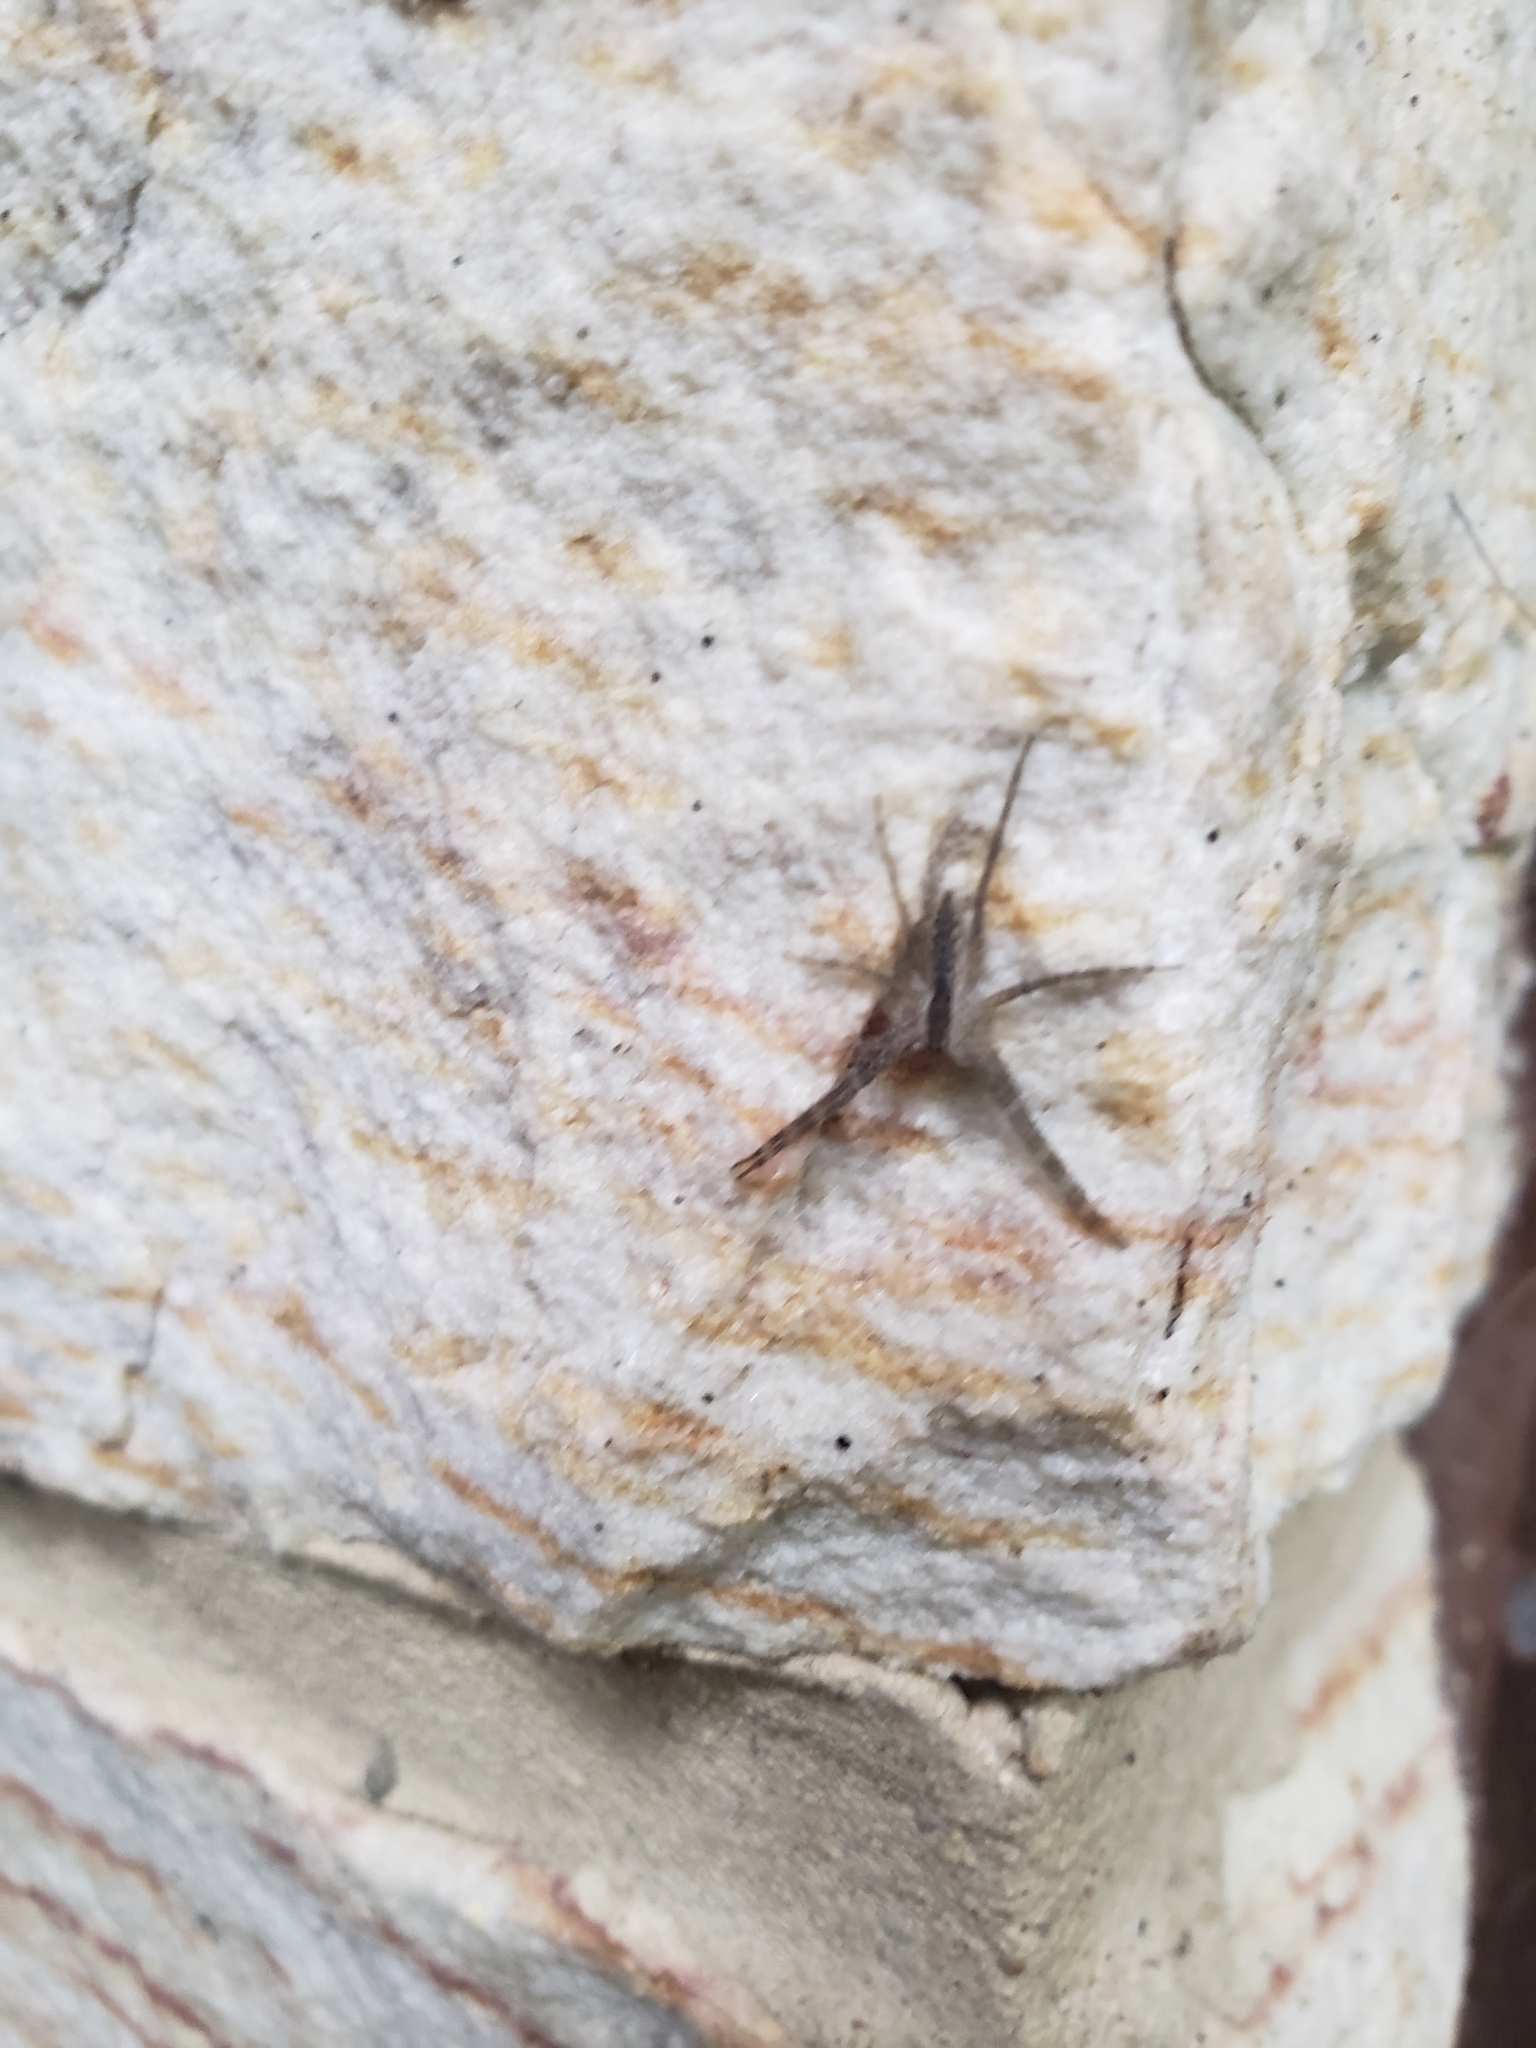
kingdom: Animalia
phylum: Arthropoda
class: Arachnida
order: Araneae
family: Pisauridae
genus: Pisaurina
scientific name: Pisaurina mira
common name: American nursery web spider
